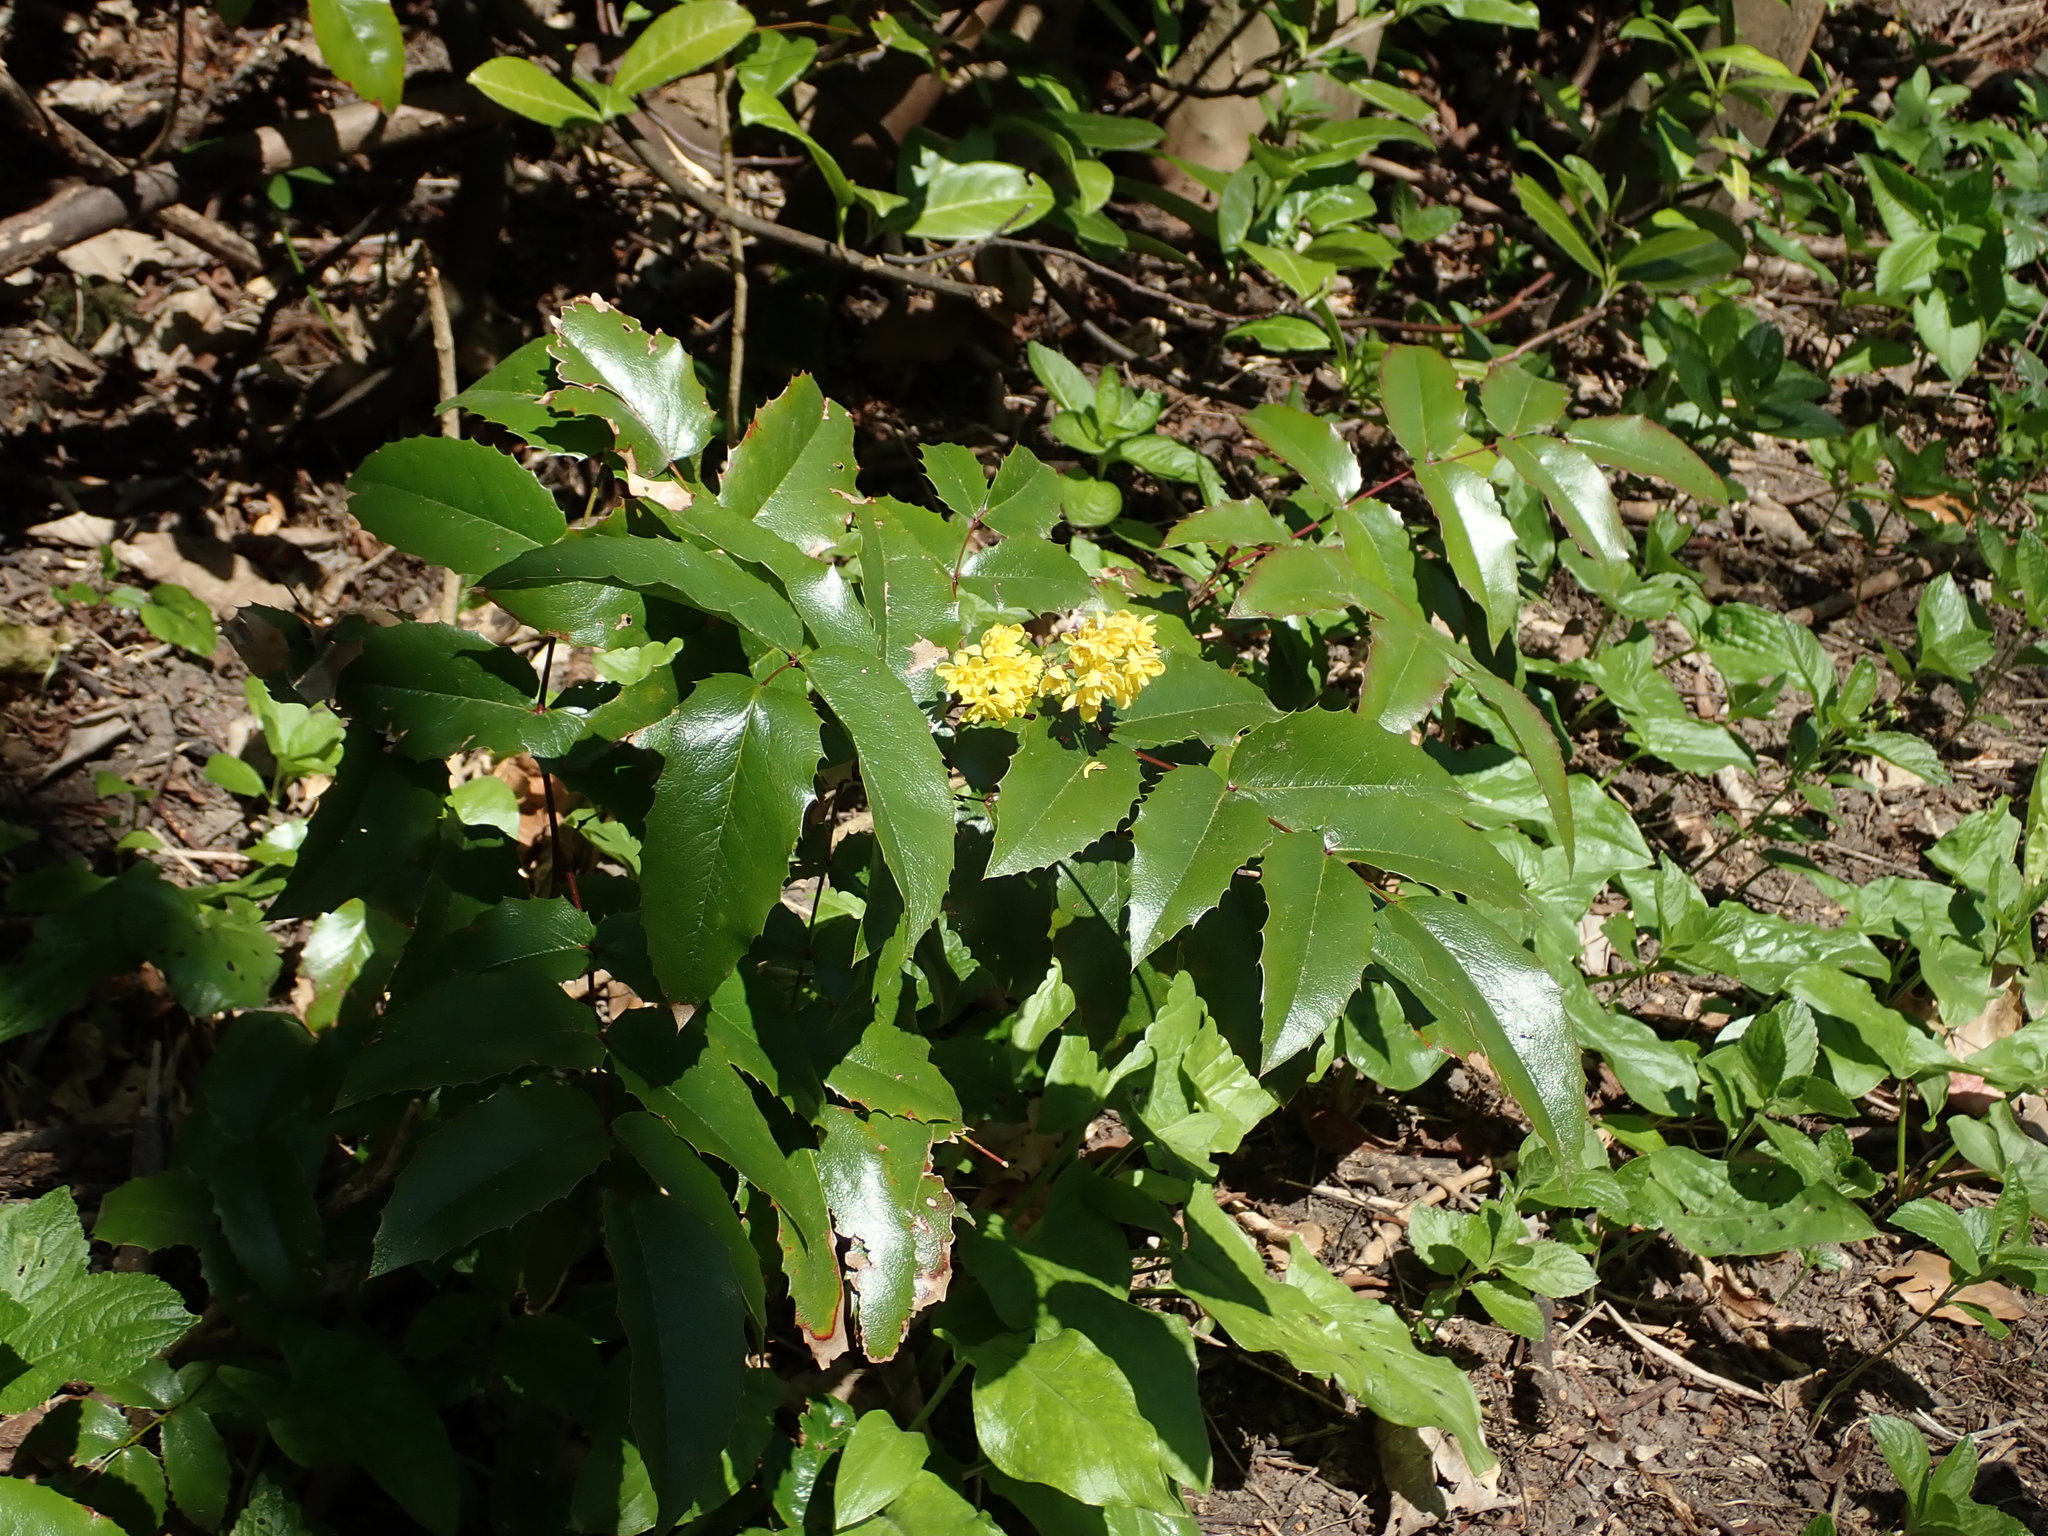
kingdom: Plantae
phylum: Tracheophyta
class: Magnoliopsida
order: Ranunculales
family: Berberidaceae
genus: Mahonia
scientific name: Mahonia aquifolium
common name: Oregon-grape
